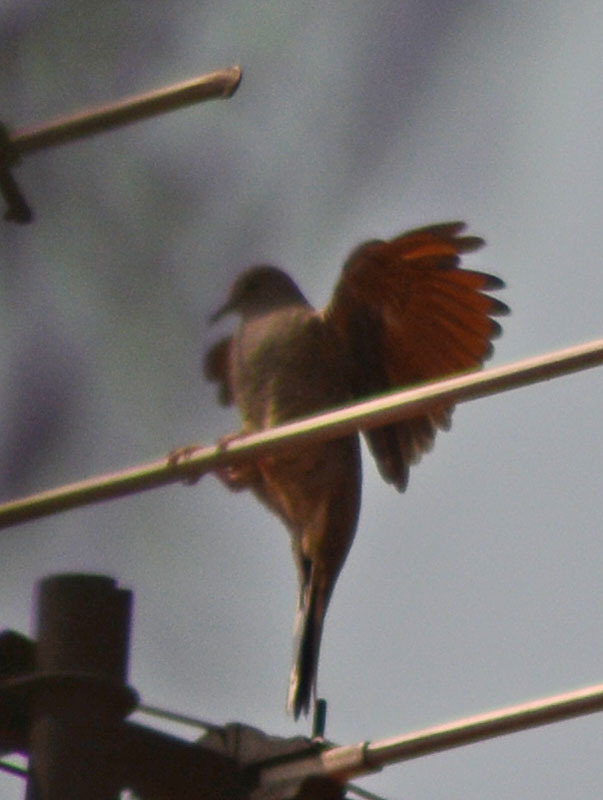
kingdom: Animalia
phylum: Chordata
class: Aves
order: Columbiformes
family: Columbidae
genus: Columbina
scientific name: Columbina inca
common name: Inca dove
